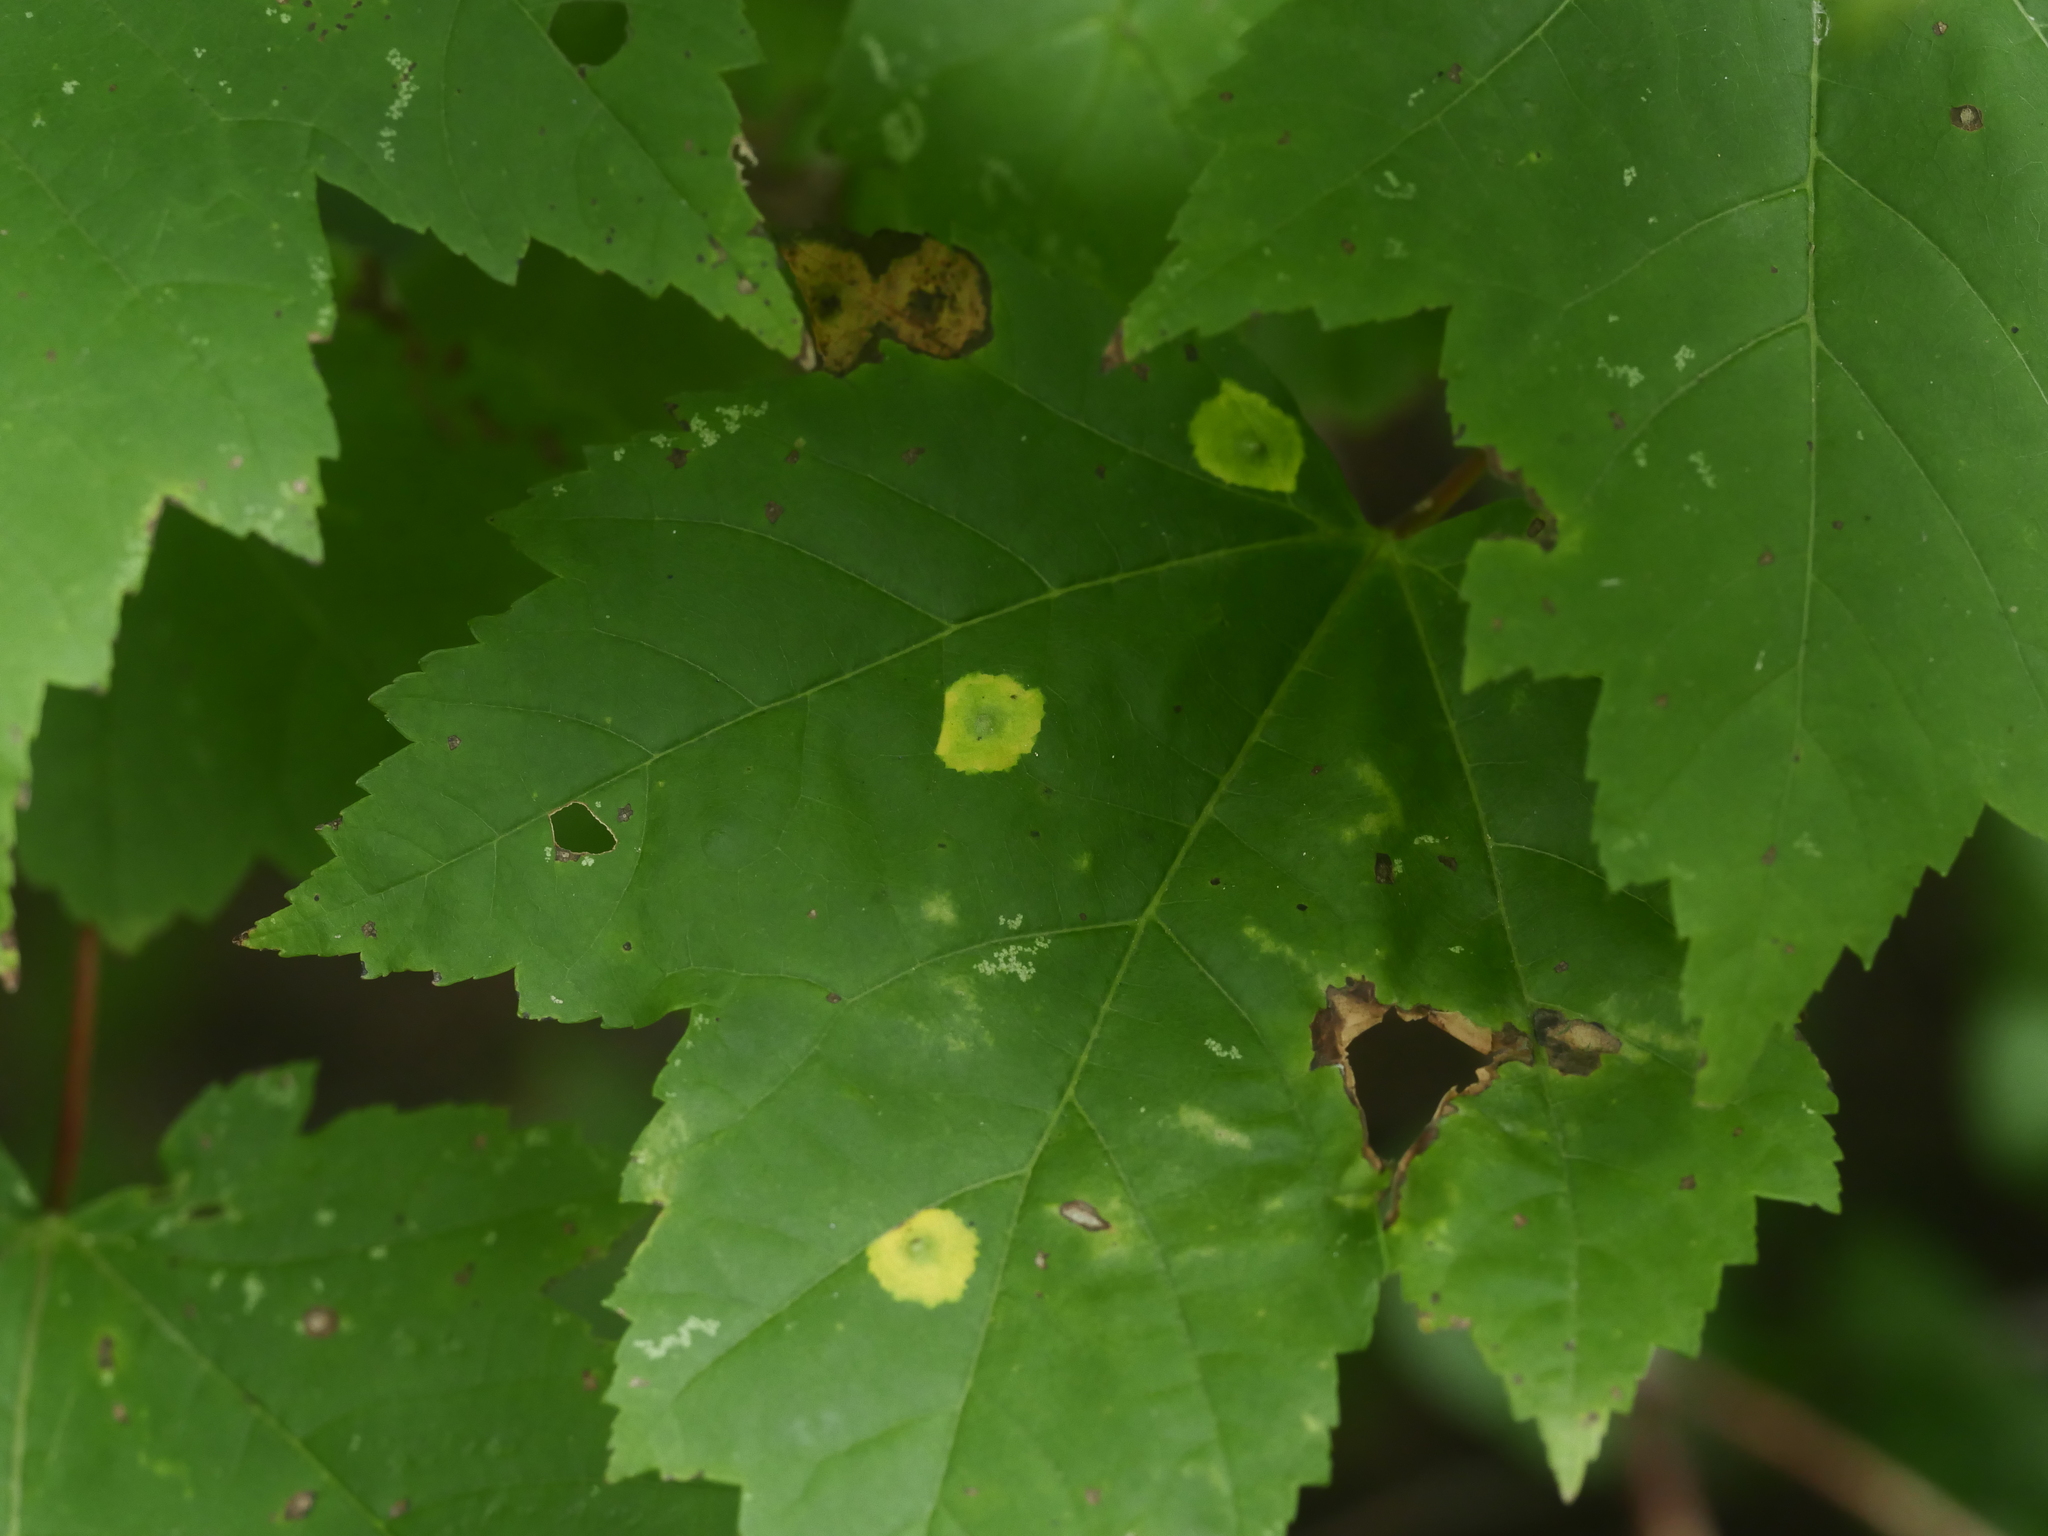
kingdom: Animalia
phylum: Arthropoda
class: Insecta
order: Diptera
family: Cecidomyiidae
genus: Acericecis
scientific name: Acericecis ocellaris
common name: Ocellate gall midge
